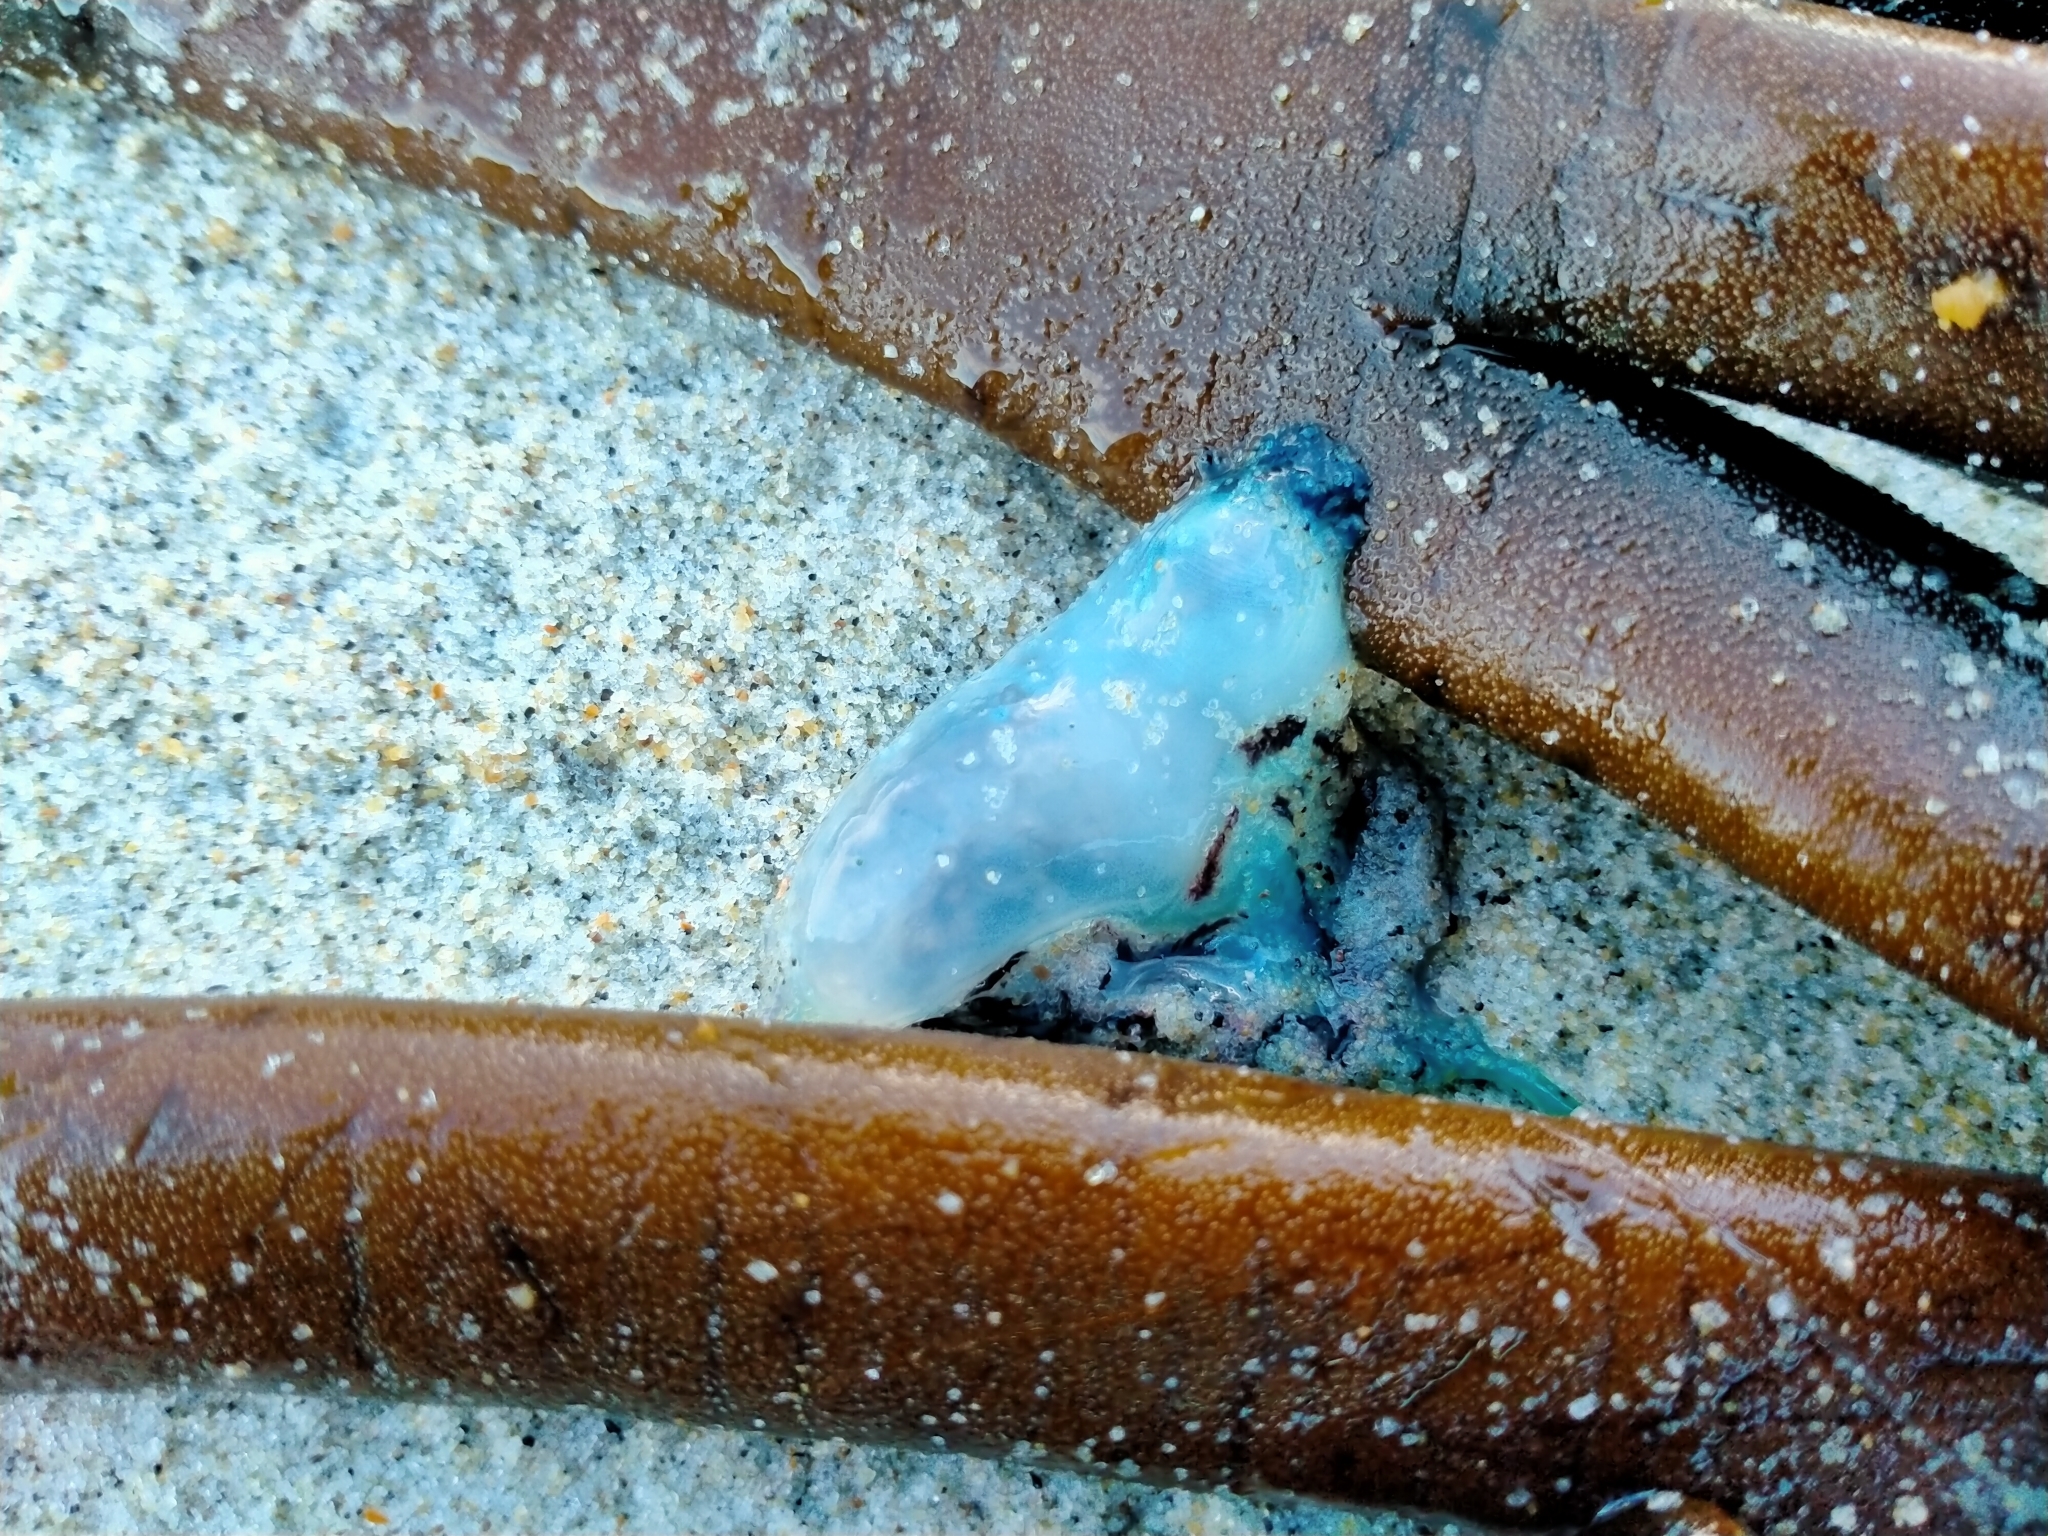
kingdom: Animalia
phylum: Cnidaria
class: Hydrozoa
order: Siphonophorae
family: Physaliidae
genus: Physalia
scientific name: Physalia physalis
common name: Portuguese man-of-war
